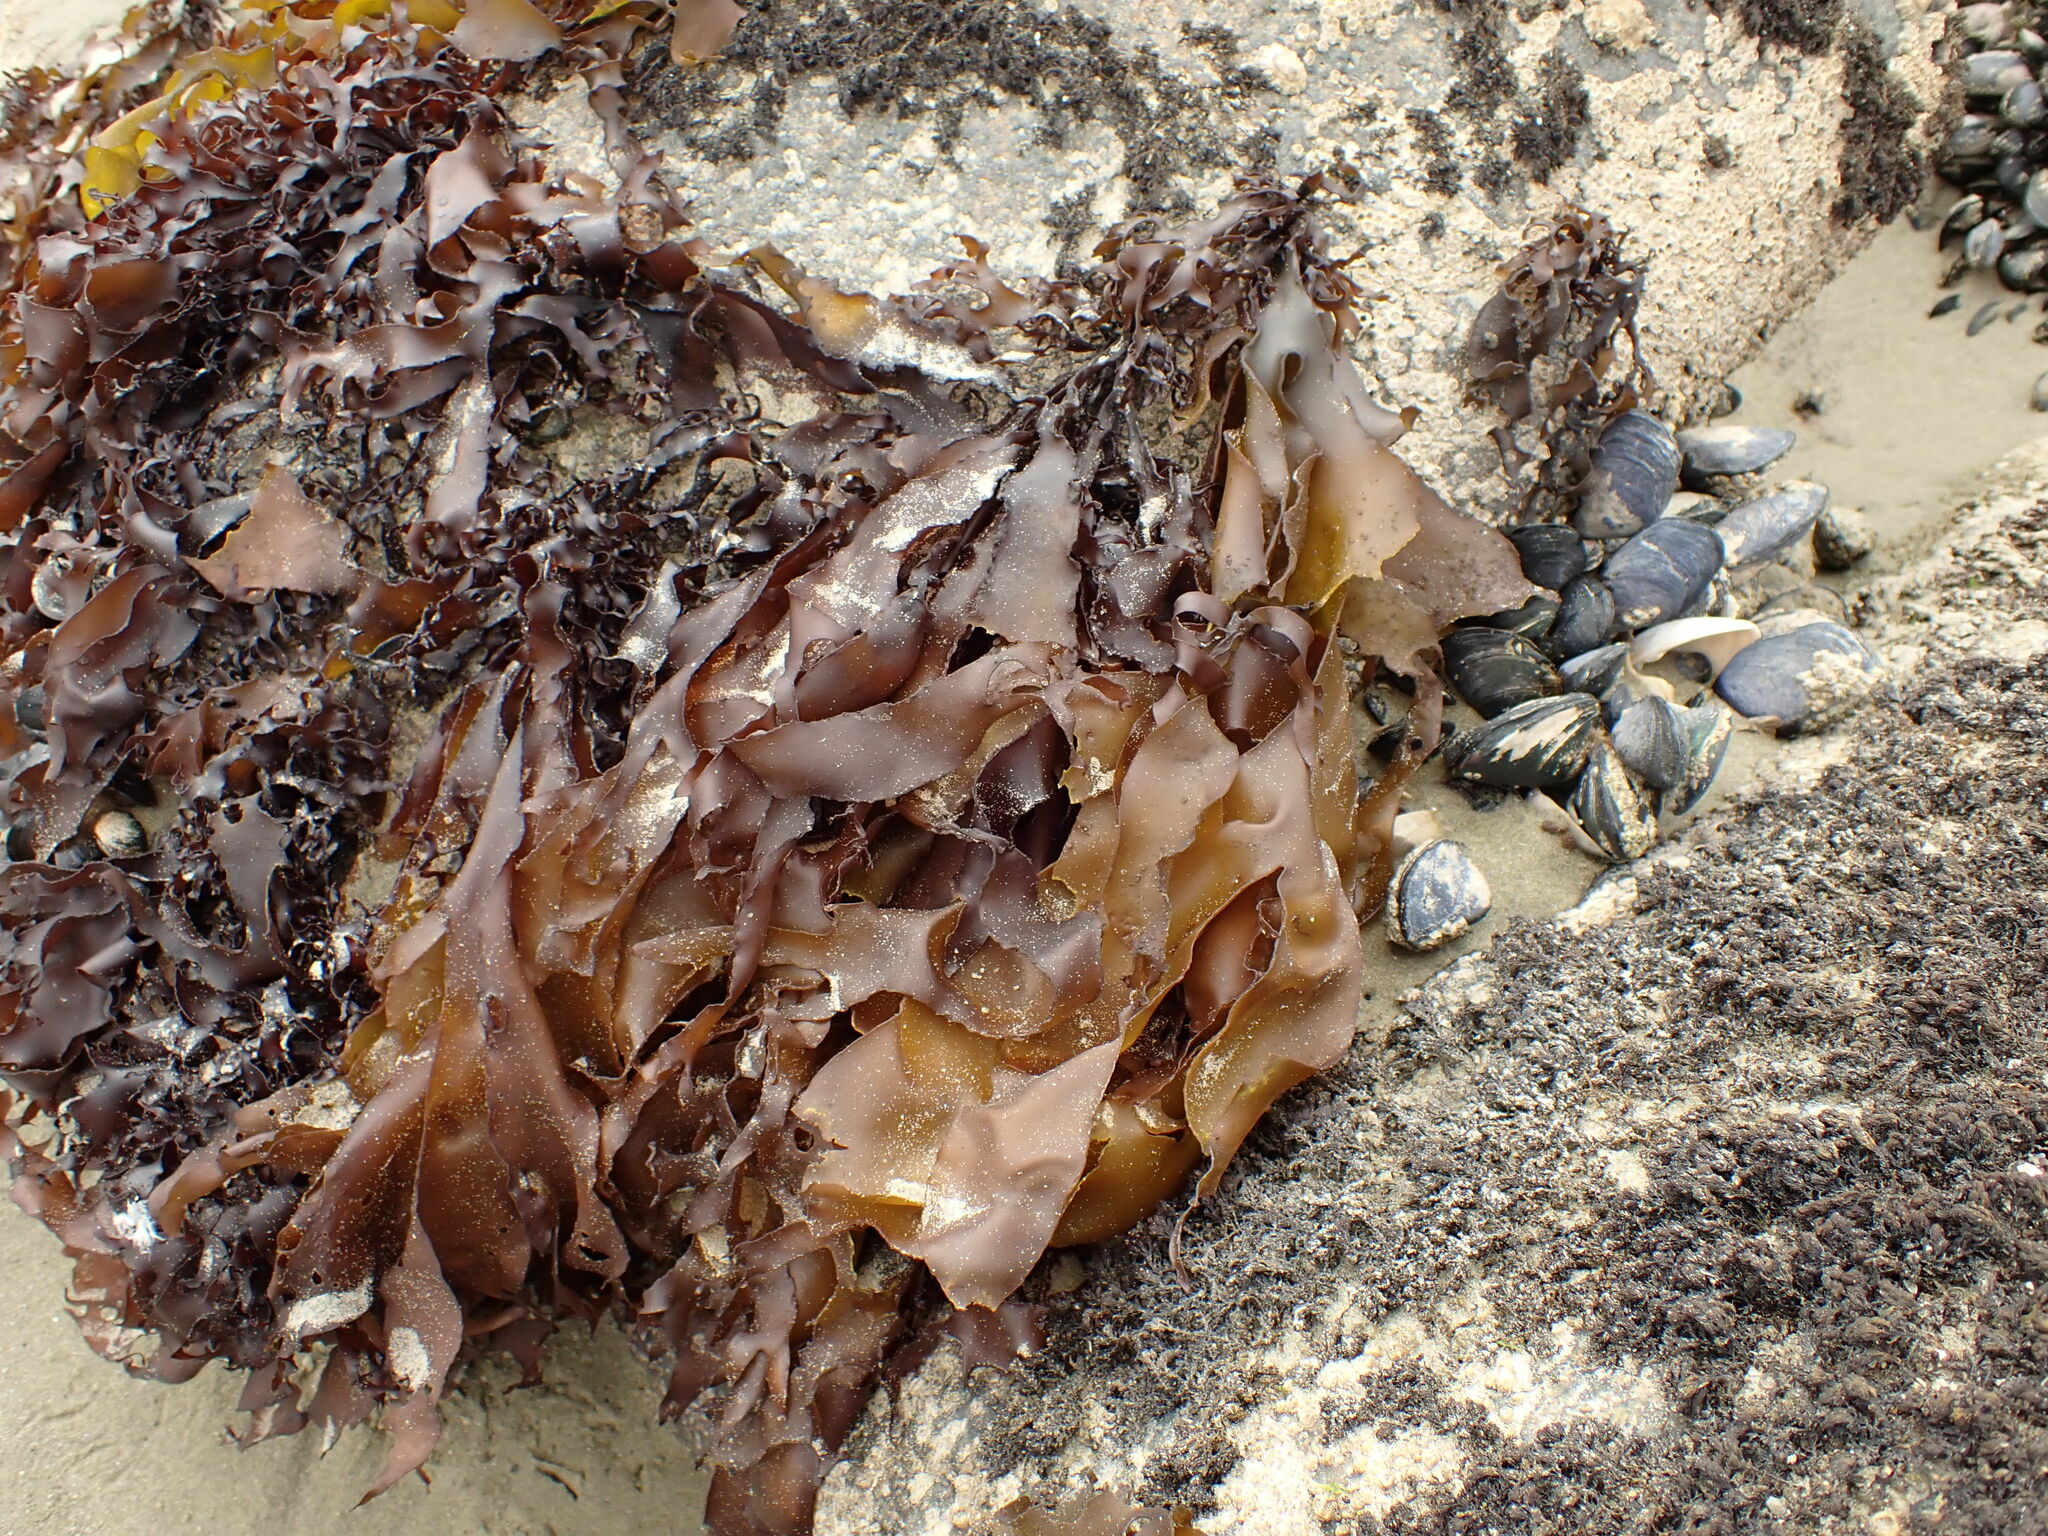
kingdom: Plantae
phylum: Rhodophyta
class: Florideophyceae
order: Halymeniales
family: Halymeniaceae
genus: Pachymenia
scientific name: Pachymenia dichotoma
